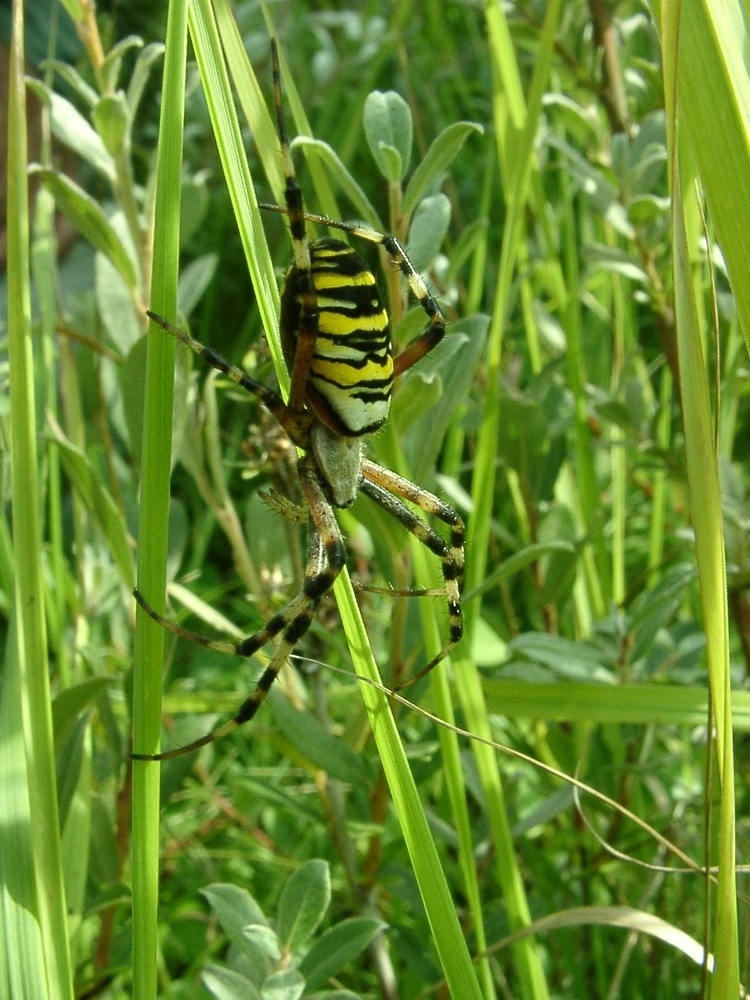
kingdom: Animalia
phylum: Arthropoda
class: Arachnida
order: Araneae
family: Araneidae
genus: Argiope
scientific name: Argiope bruennichi
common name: Wasp spider
